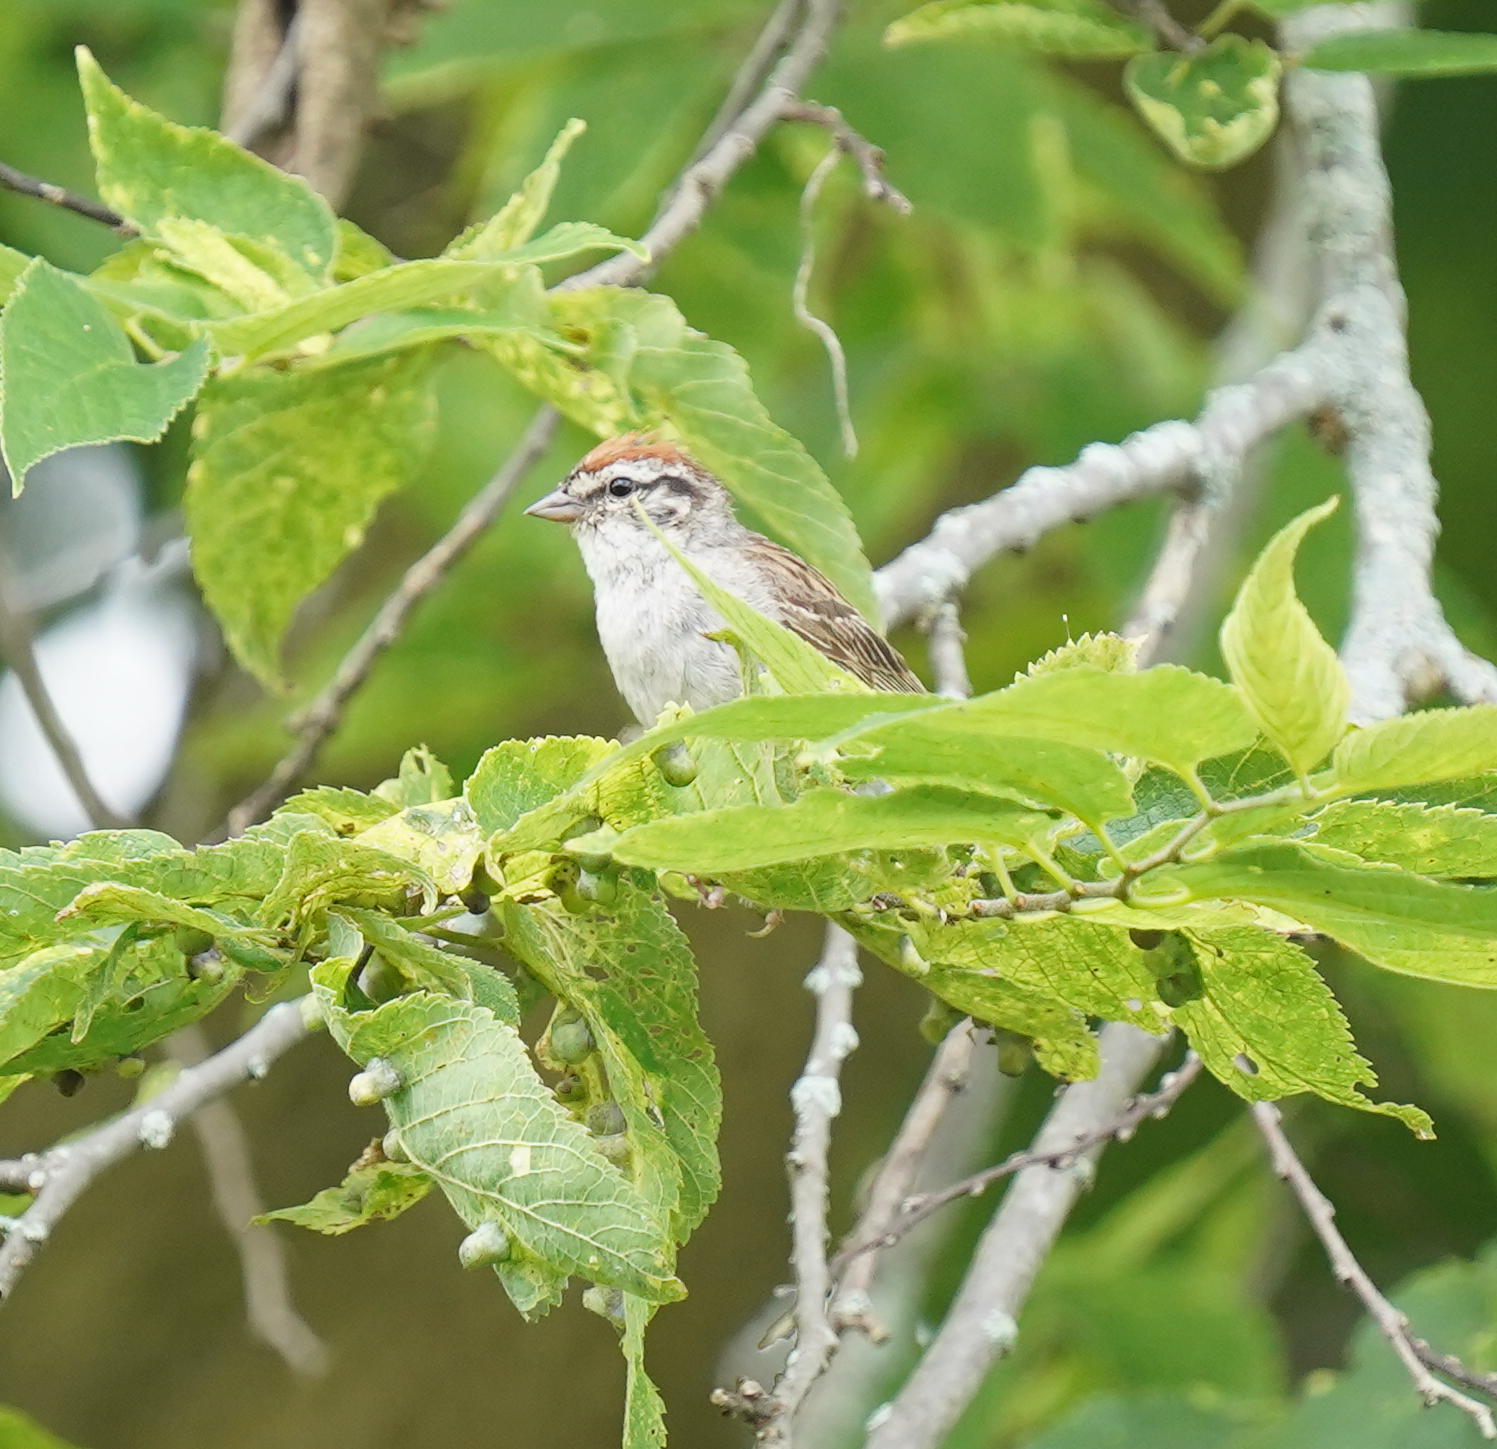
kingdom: Animalia
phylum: Chordata
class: Aves
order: Passeriformes
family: Passerellidae
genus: Spizella
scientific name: Spizella passerina
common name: Chipping sparrow
